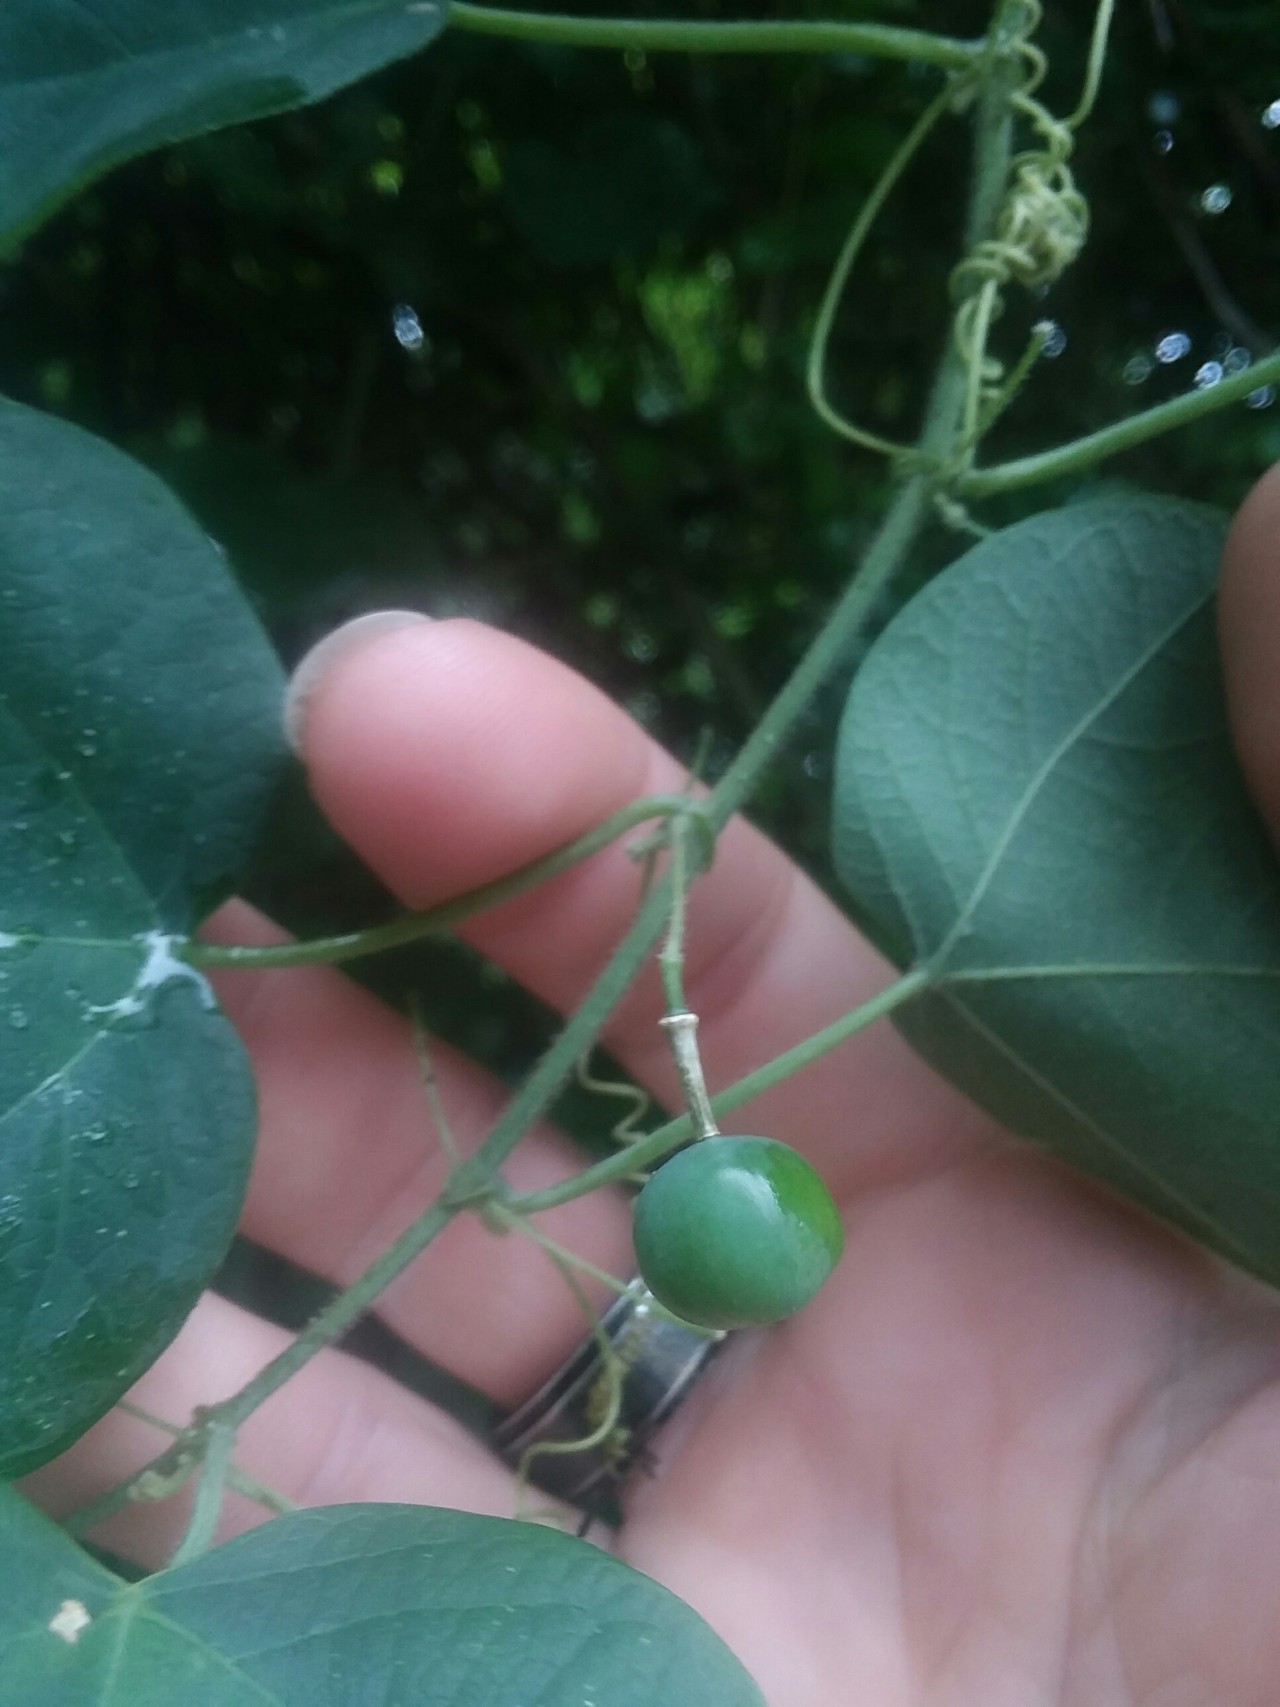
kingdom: Plantae
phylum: Tracheophyta
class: Magnoliopsida
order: Malpighiales
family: Passifloraceae
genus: Passiflora
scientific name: Passiflora lutea
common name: Yellow passionflower
